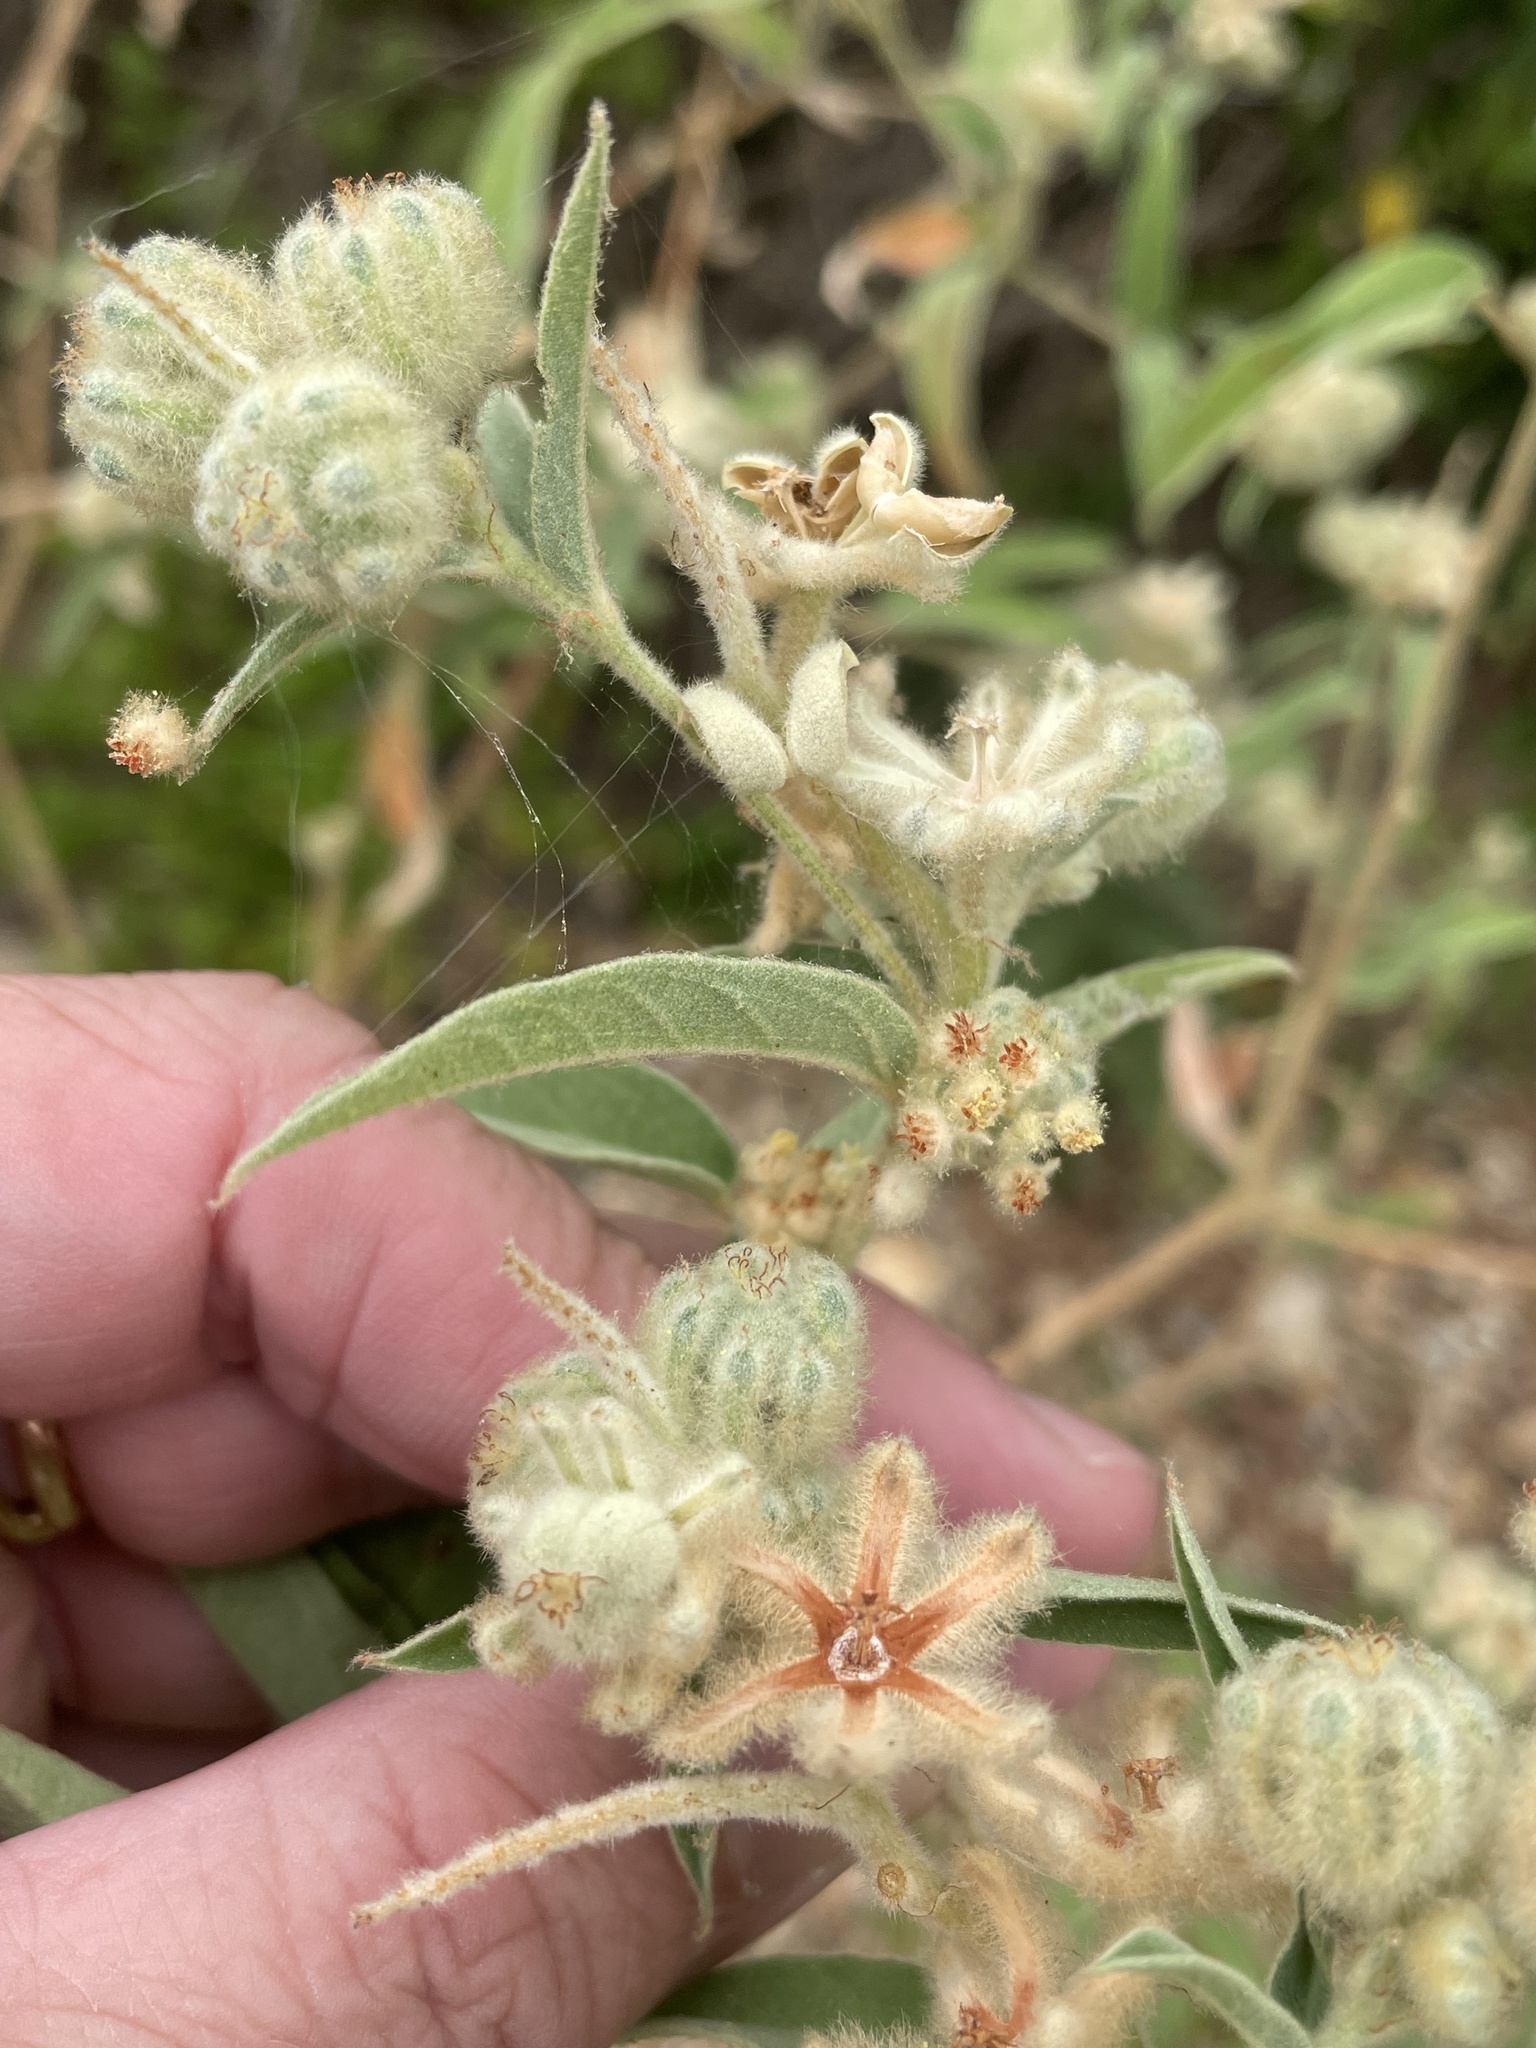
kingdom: Plantae
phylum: Tracheophyta
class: Magnoliopsida
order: Malpighiales
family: Euphorbiaceae
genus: Croton
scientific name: Croton lindheimeri
